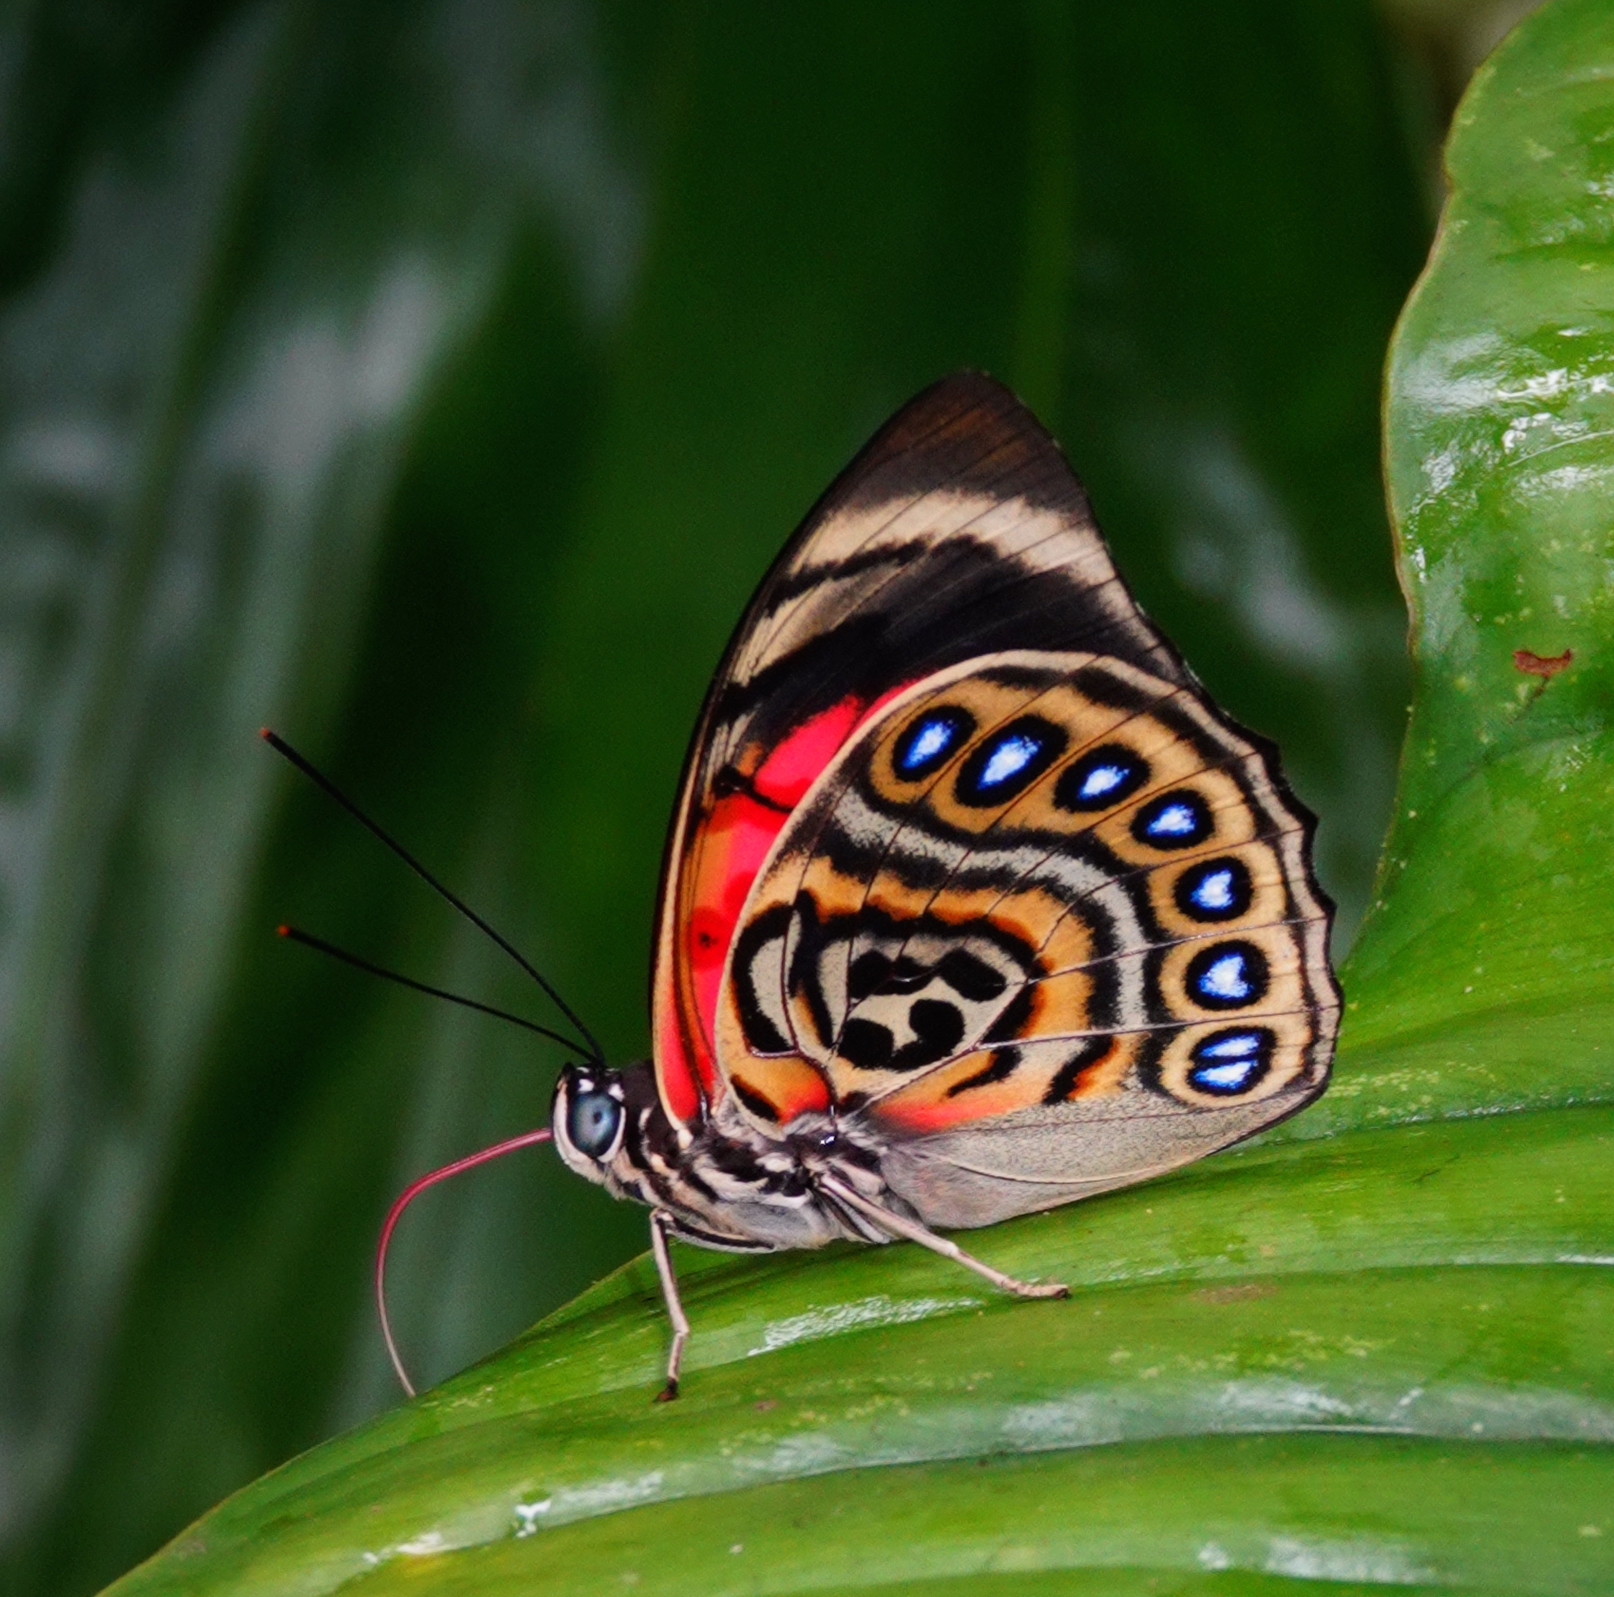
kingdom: Animalia
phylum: Arthropoda
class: Insecta
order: Lepidoptera
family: Nymphalidae
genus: Prepona
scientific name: Prepona claudina
